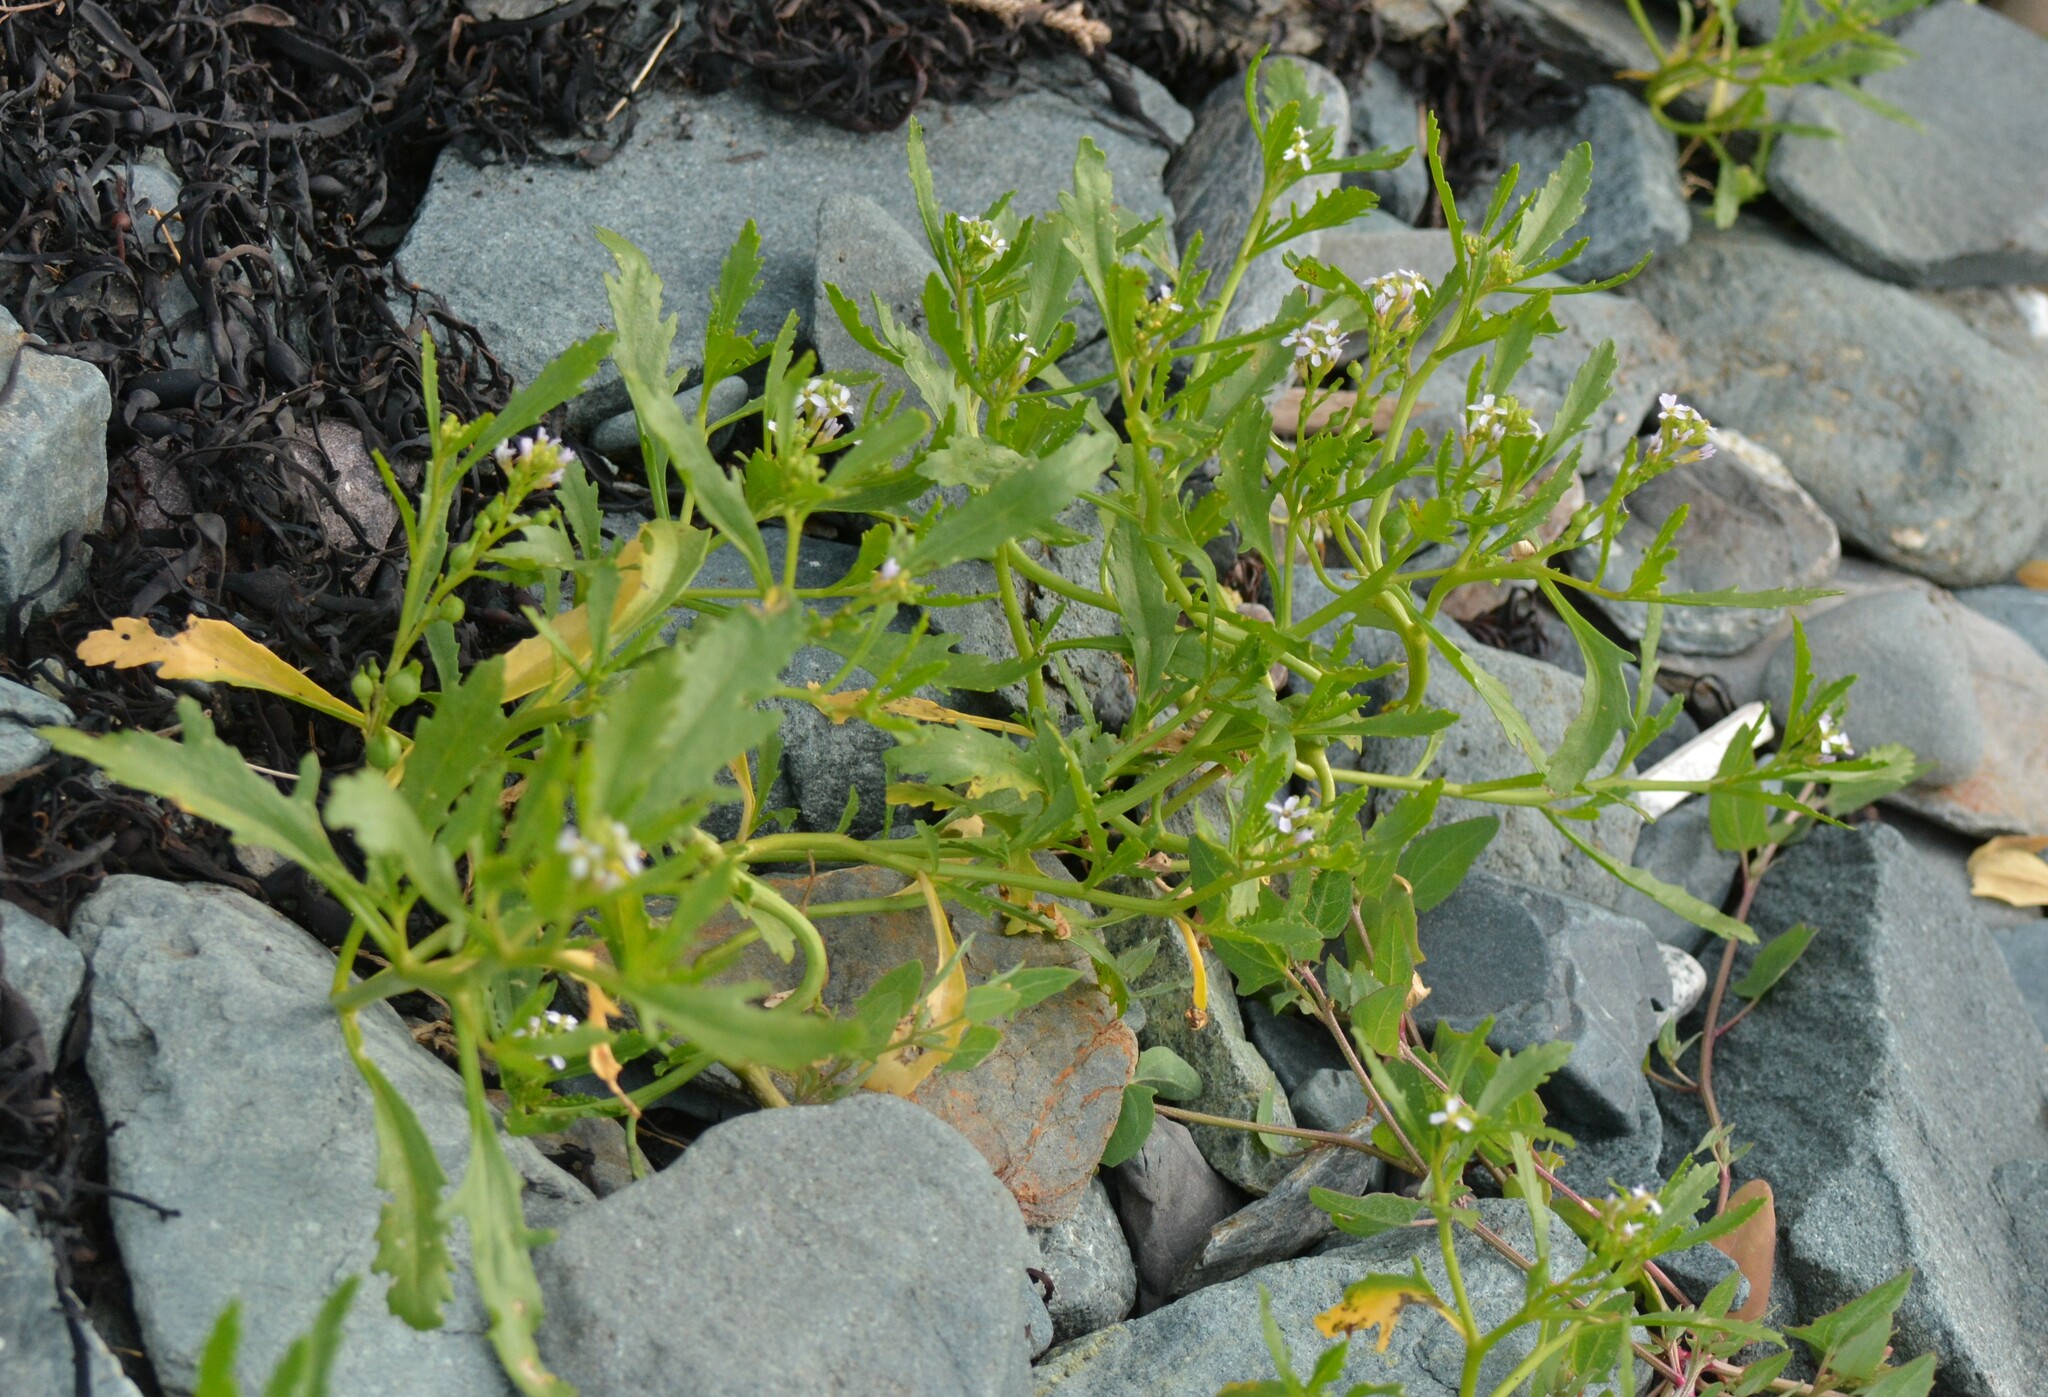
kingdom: Plantae
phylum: Tracheophyta
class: Magnoliopsida
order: Brassicales
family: Brassicaceae
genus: Cakile
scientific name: Cakile edentula
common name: American sea rocket
